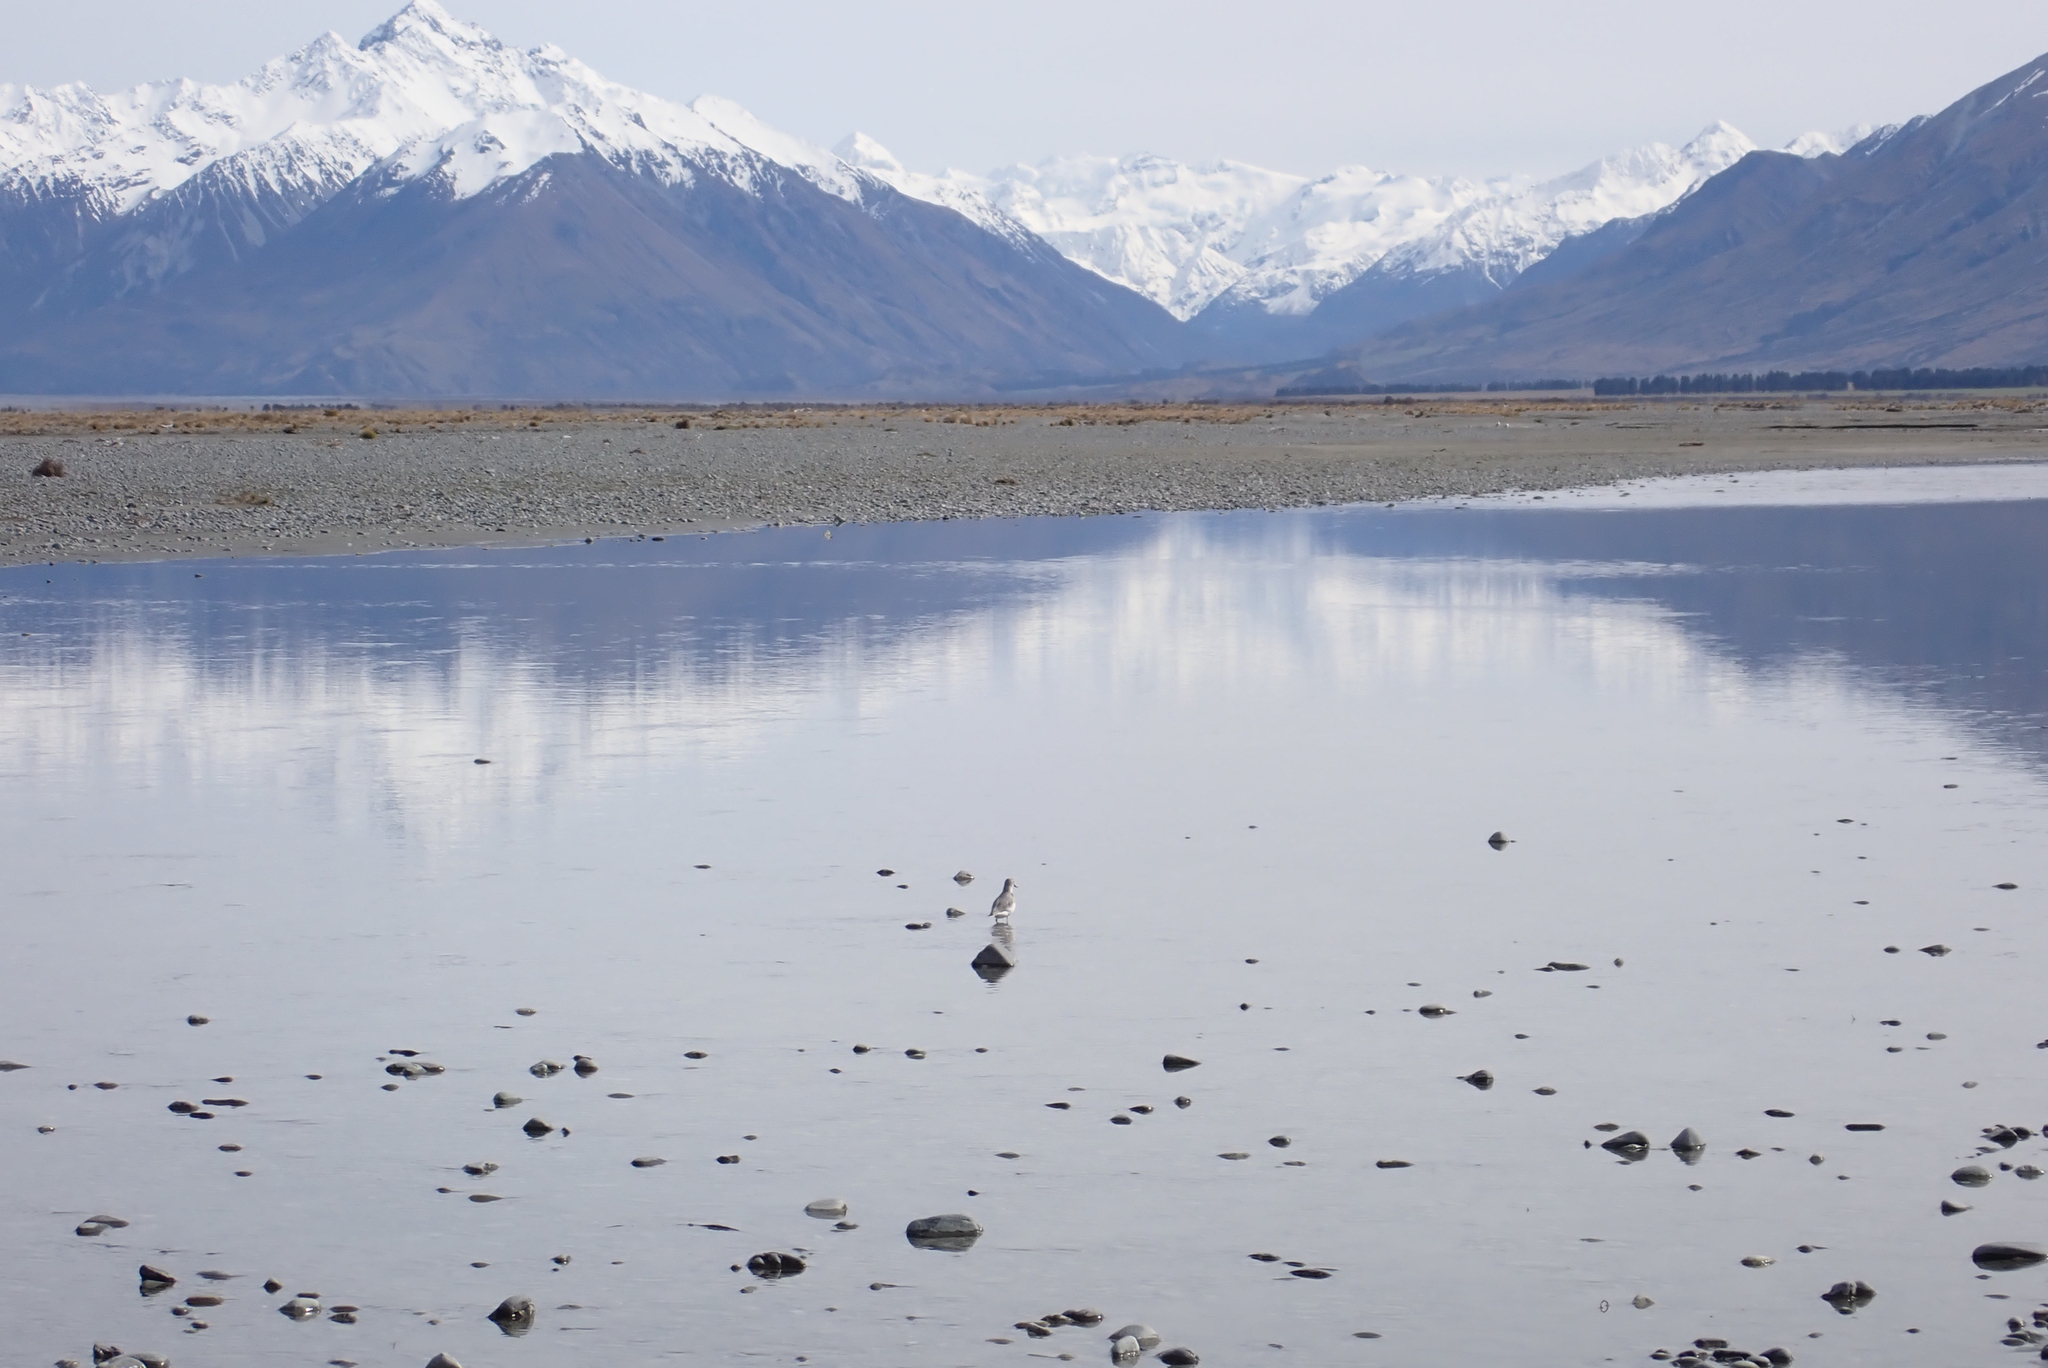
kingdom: Animalia
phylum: Chordata
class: Aves
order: Charadriiformes
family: Charadriidae
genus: Anarhynchus
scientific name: Anarhynchus frontalis
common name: Wrybill
